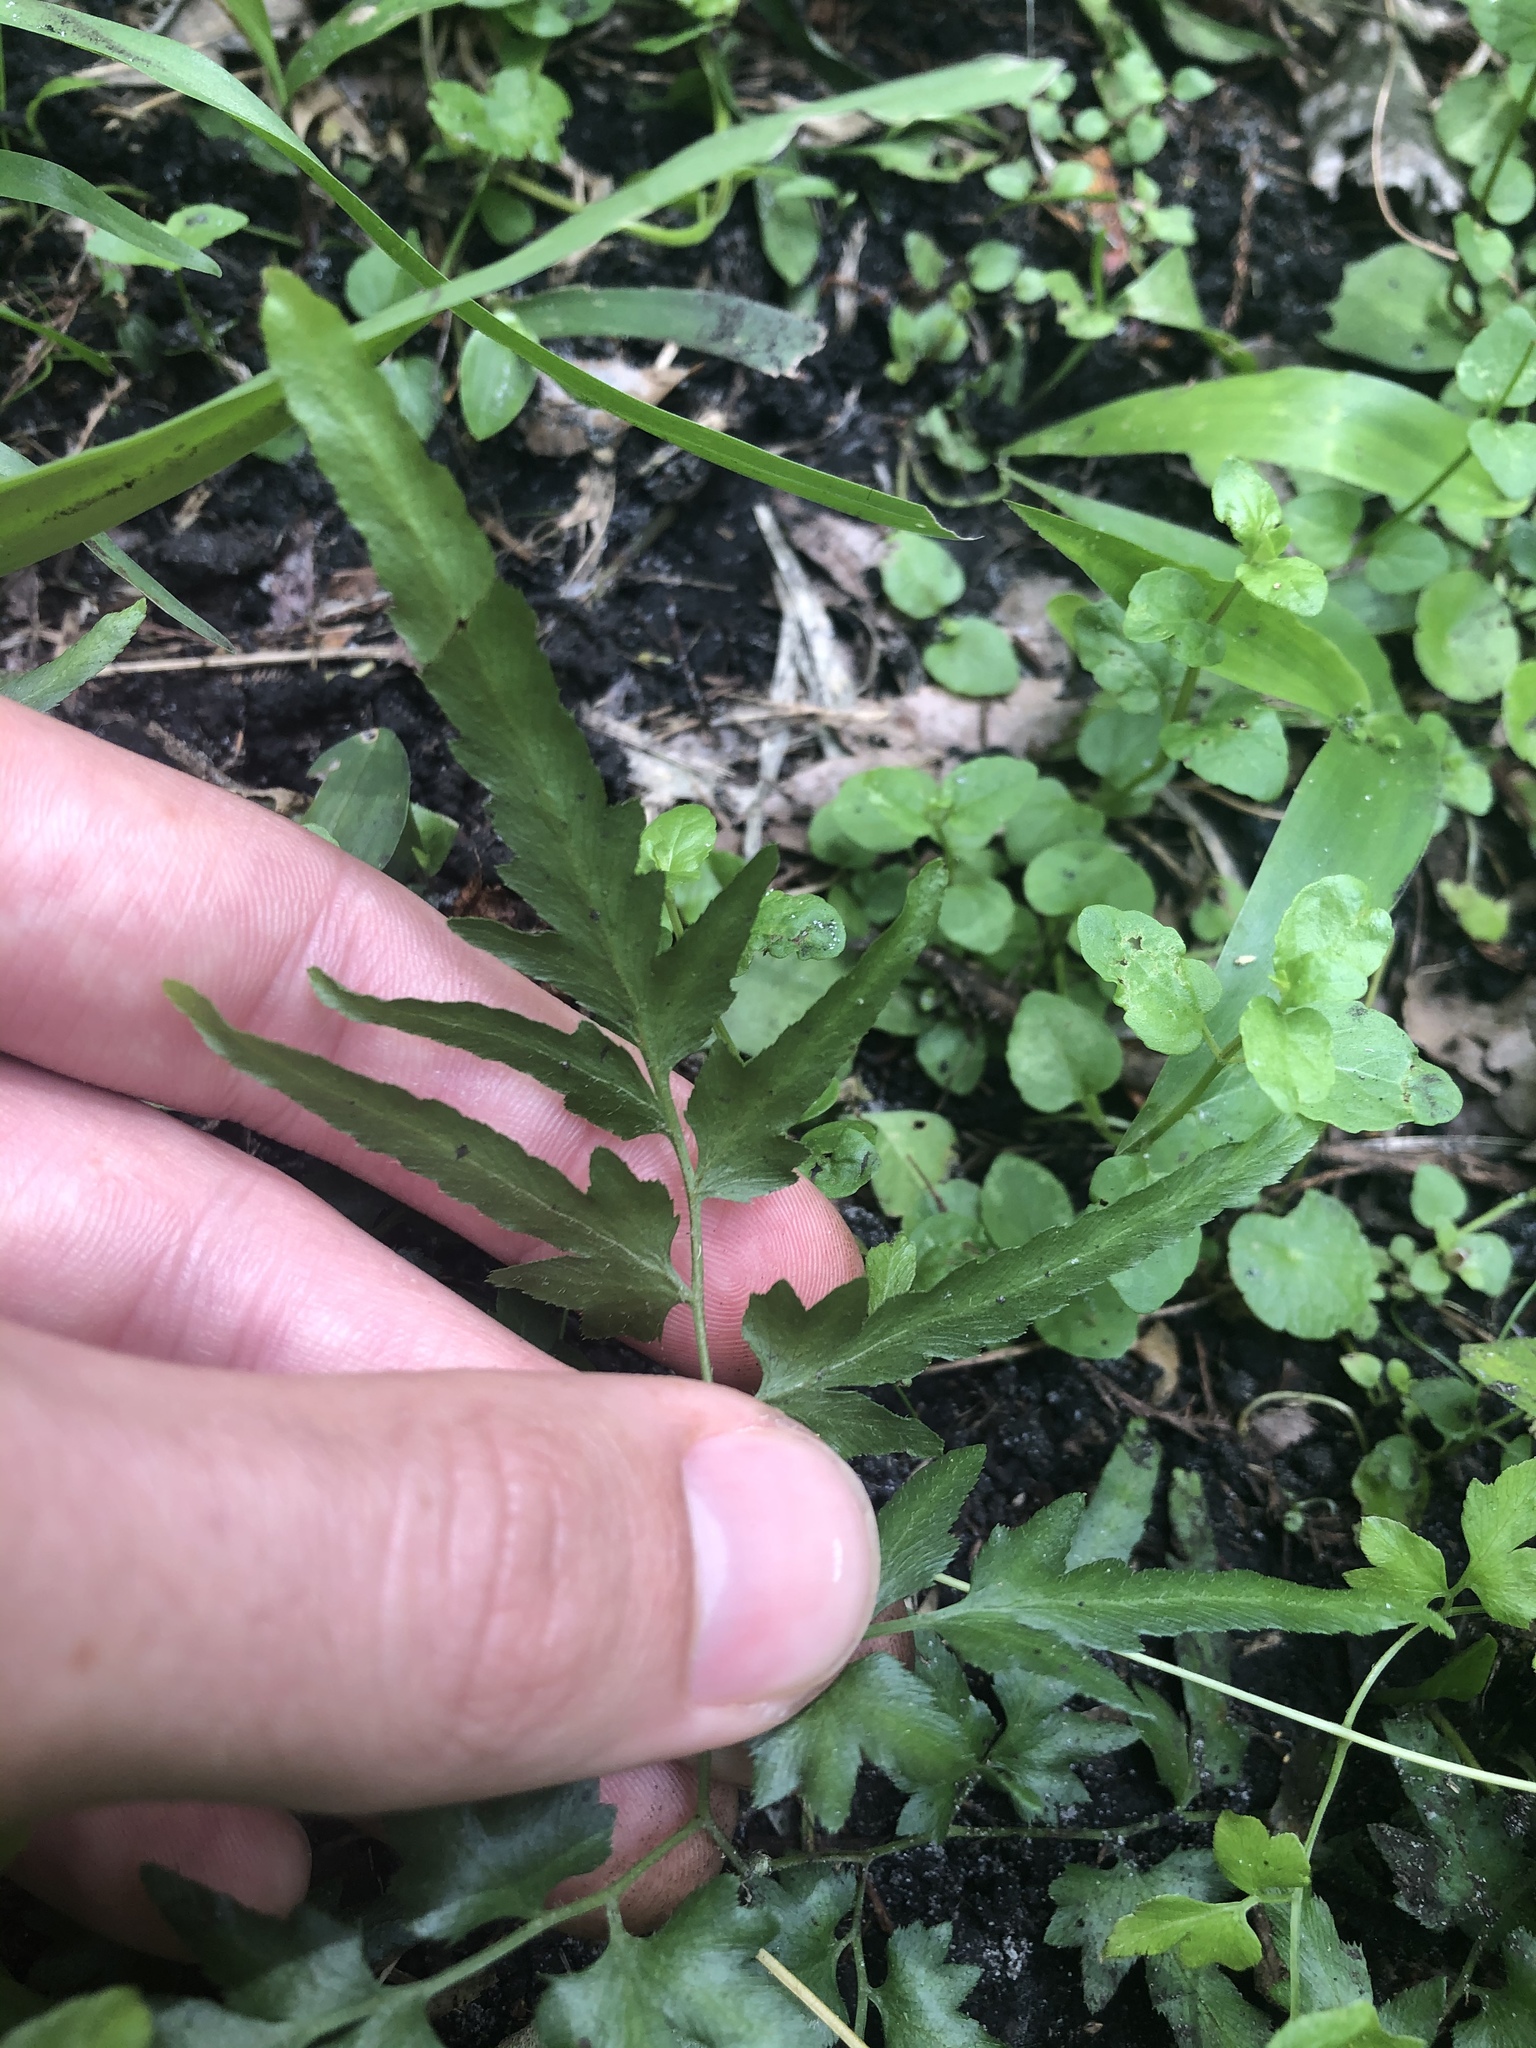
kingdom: Plantae
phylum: Tracheophyta
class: Polypodiopsida
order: Schizaeales
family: Lygodiaceae
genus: Lygodium
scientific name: Lygodium japonicum
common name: Japanese climbing fern
